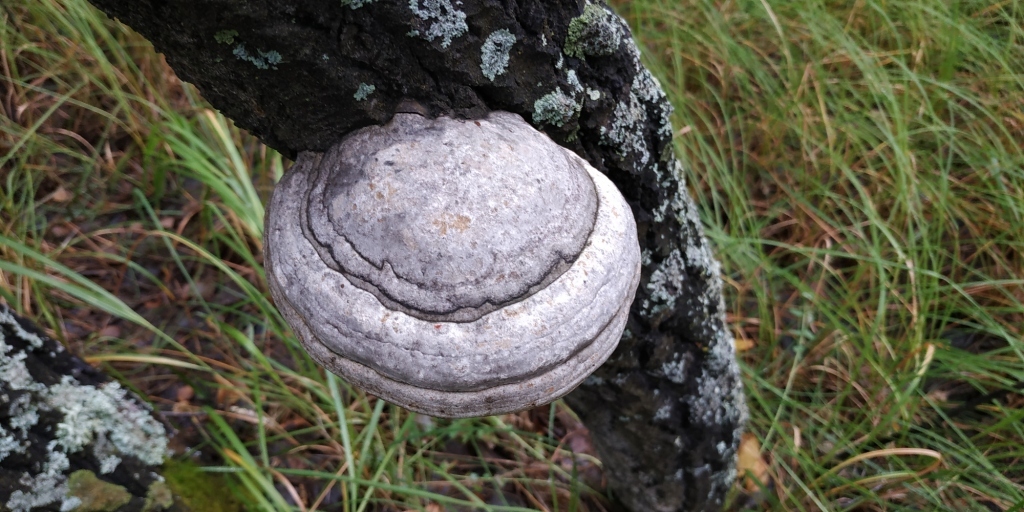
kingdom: Fungi
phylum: Basidiomycota
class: Agaricomycetes
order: Polyporales
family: Polyporaceae
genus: Fomes
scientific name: Fomes fomentarius
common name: Hoof fungus
